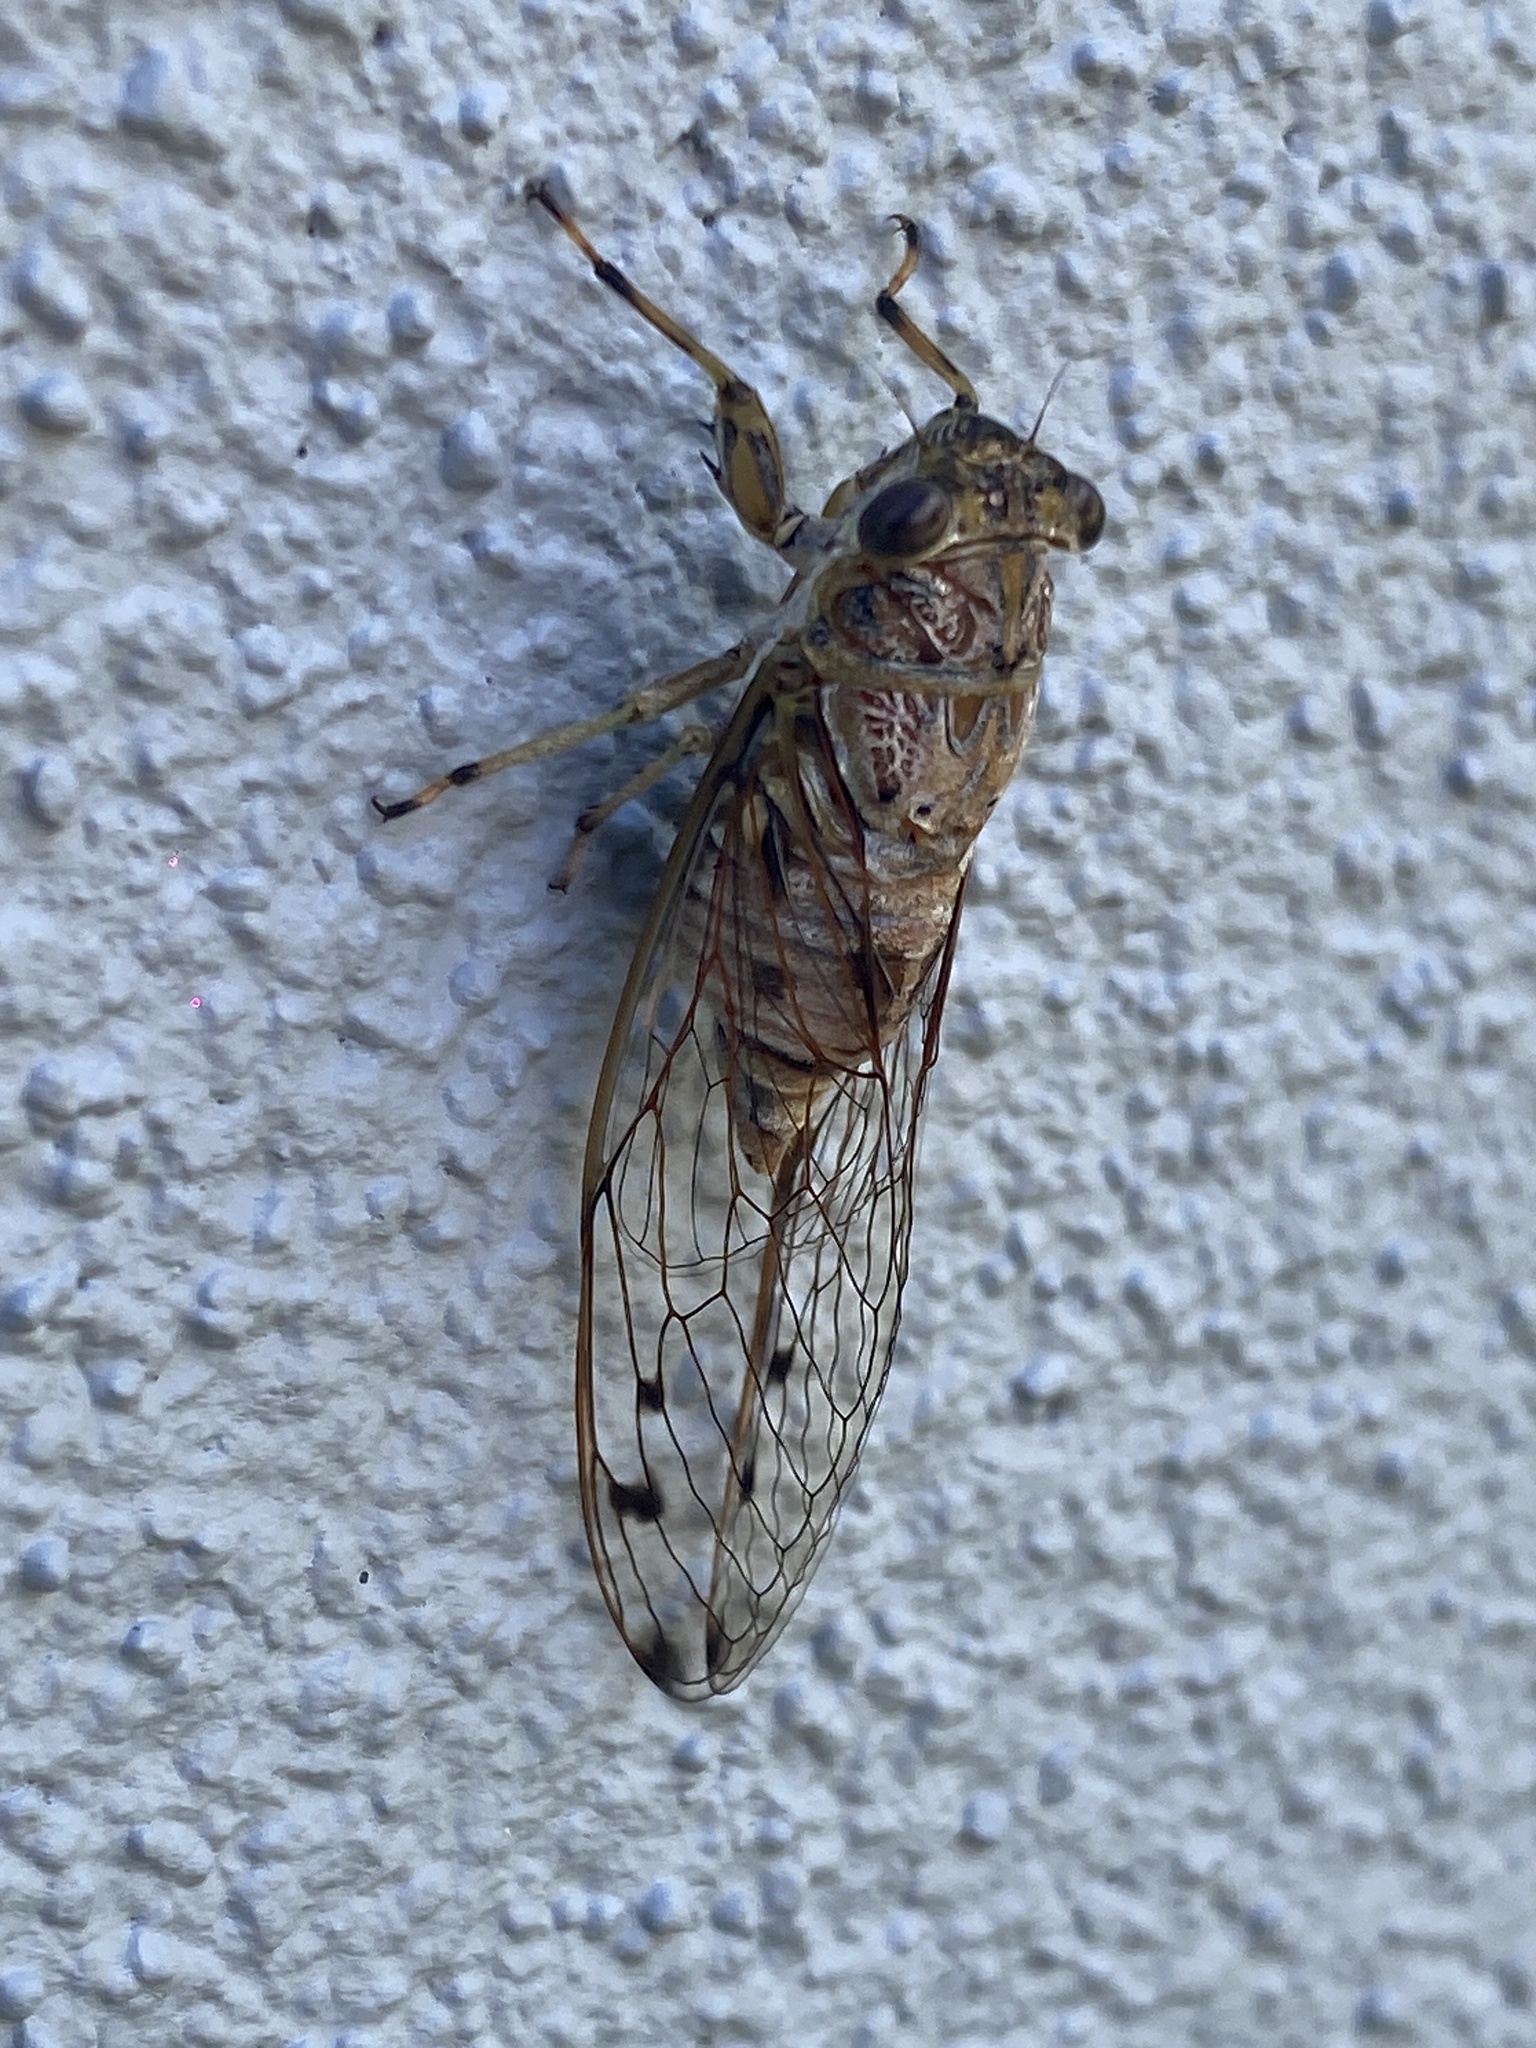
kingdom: Animalia
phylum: Arthropoda
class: Insecta
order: Hemiptera
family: Cicadidae
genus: Tamasa
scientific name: Tamasa tristigma
